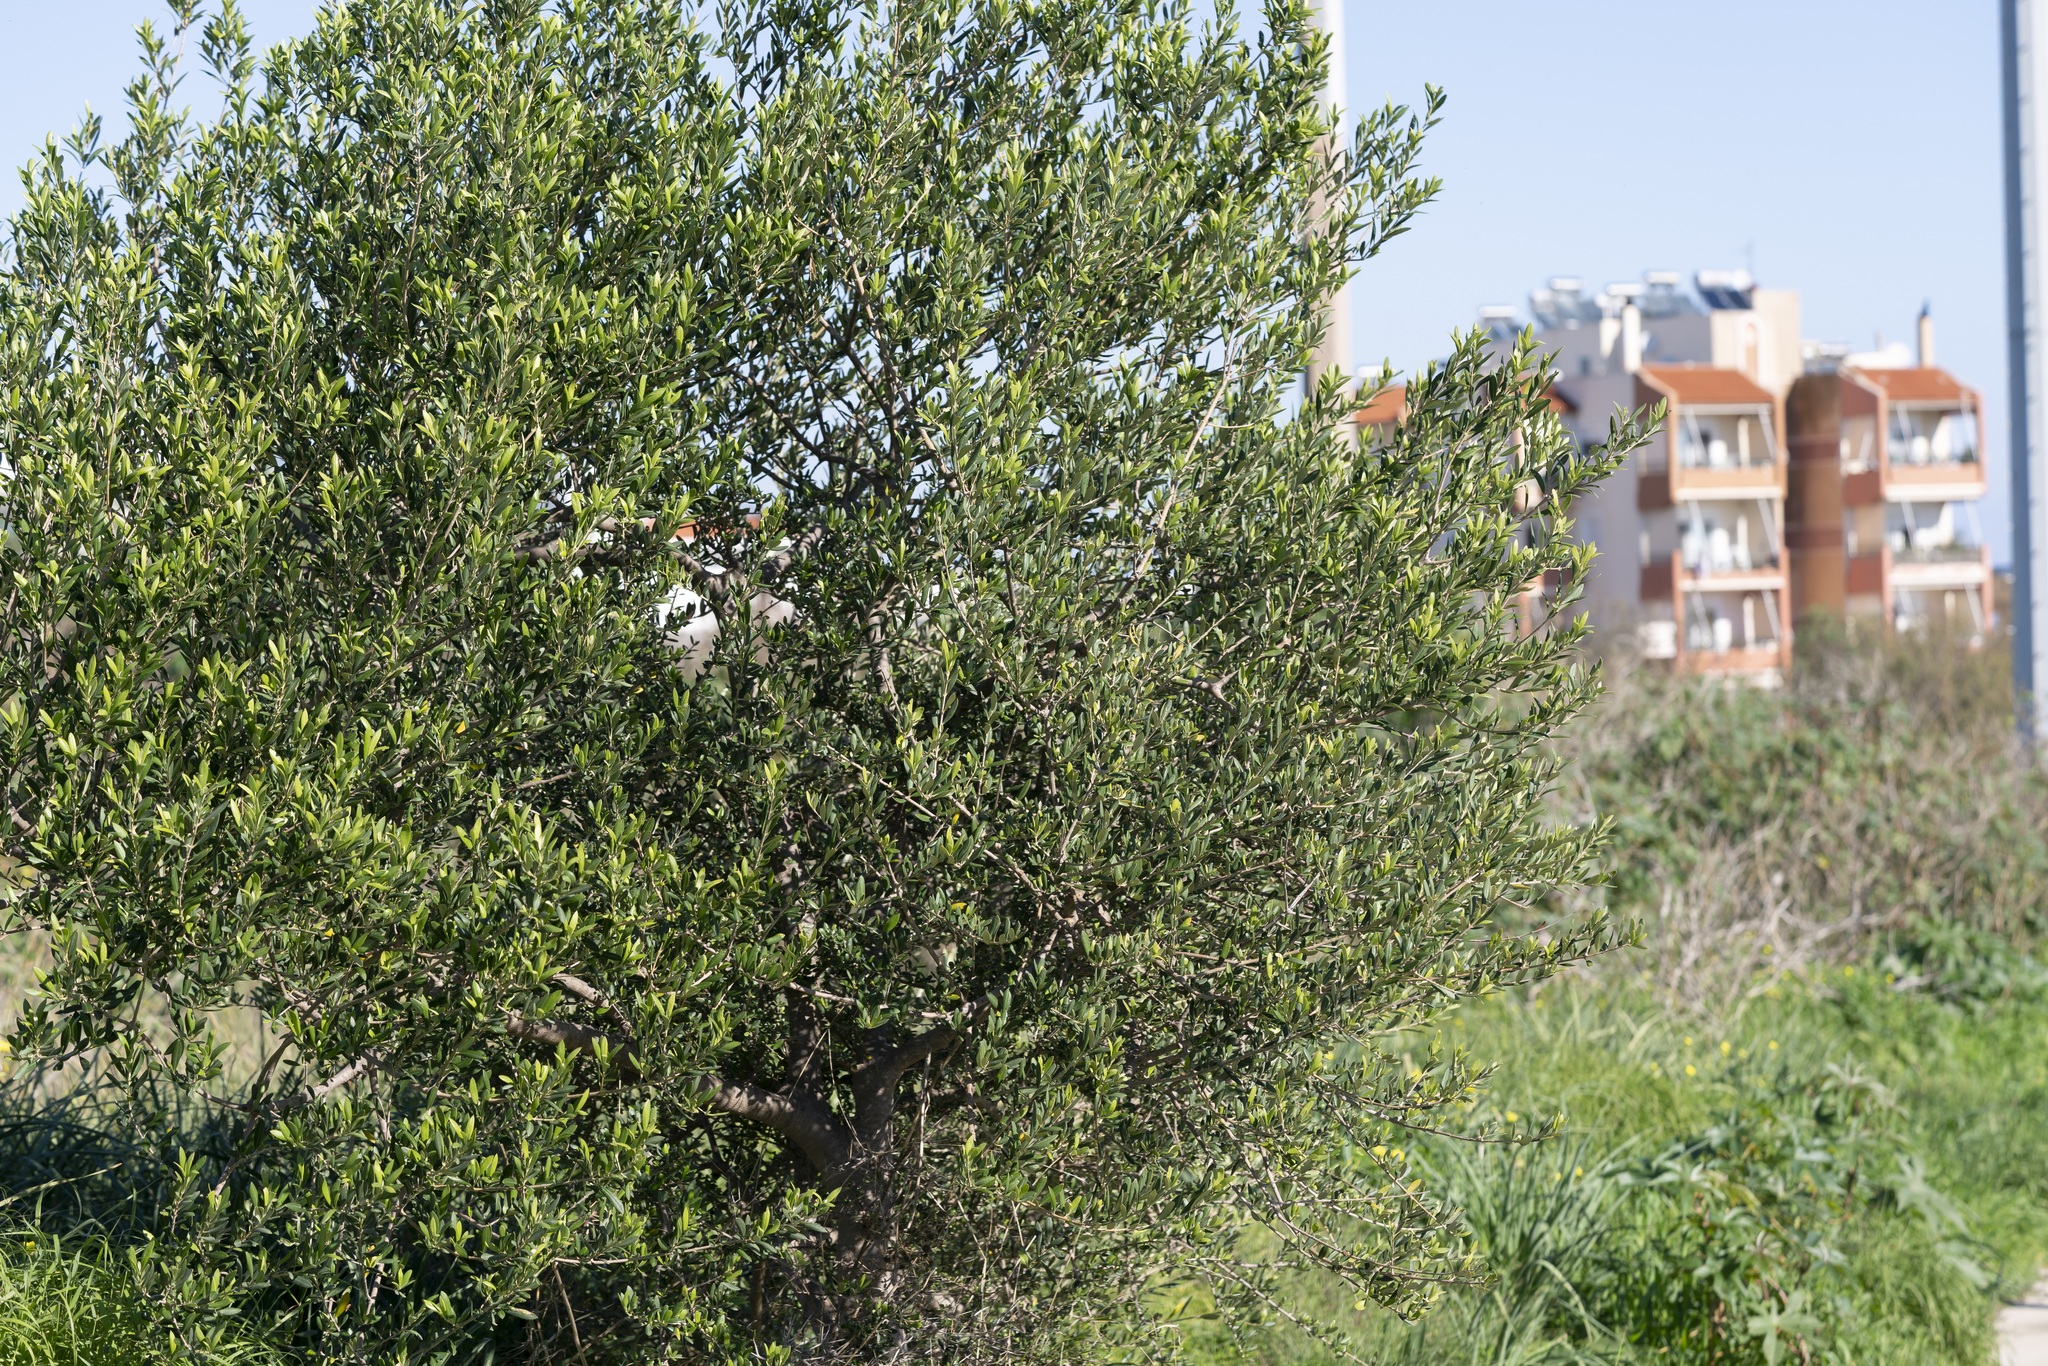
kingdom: Plantae
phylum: Tracheophyta
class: Magnoliopsida
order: Lamiales
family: Oleaceae
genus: Olea
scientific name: Olea europaea
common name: Olive
